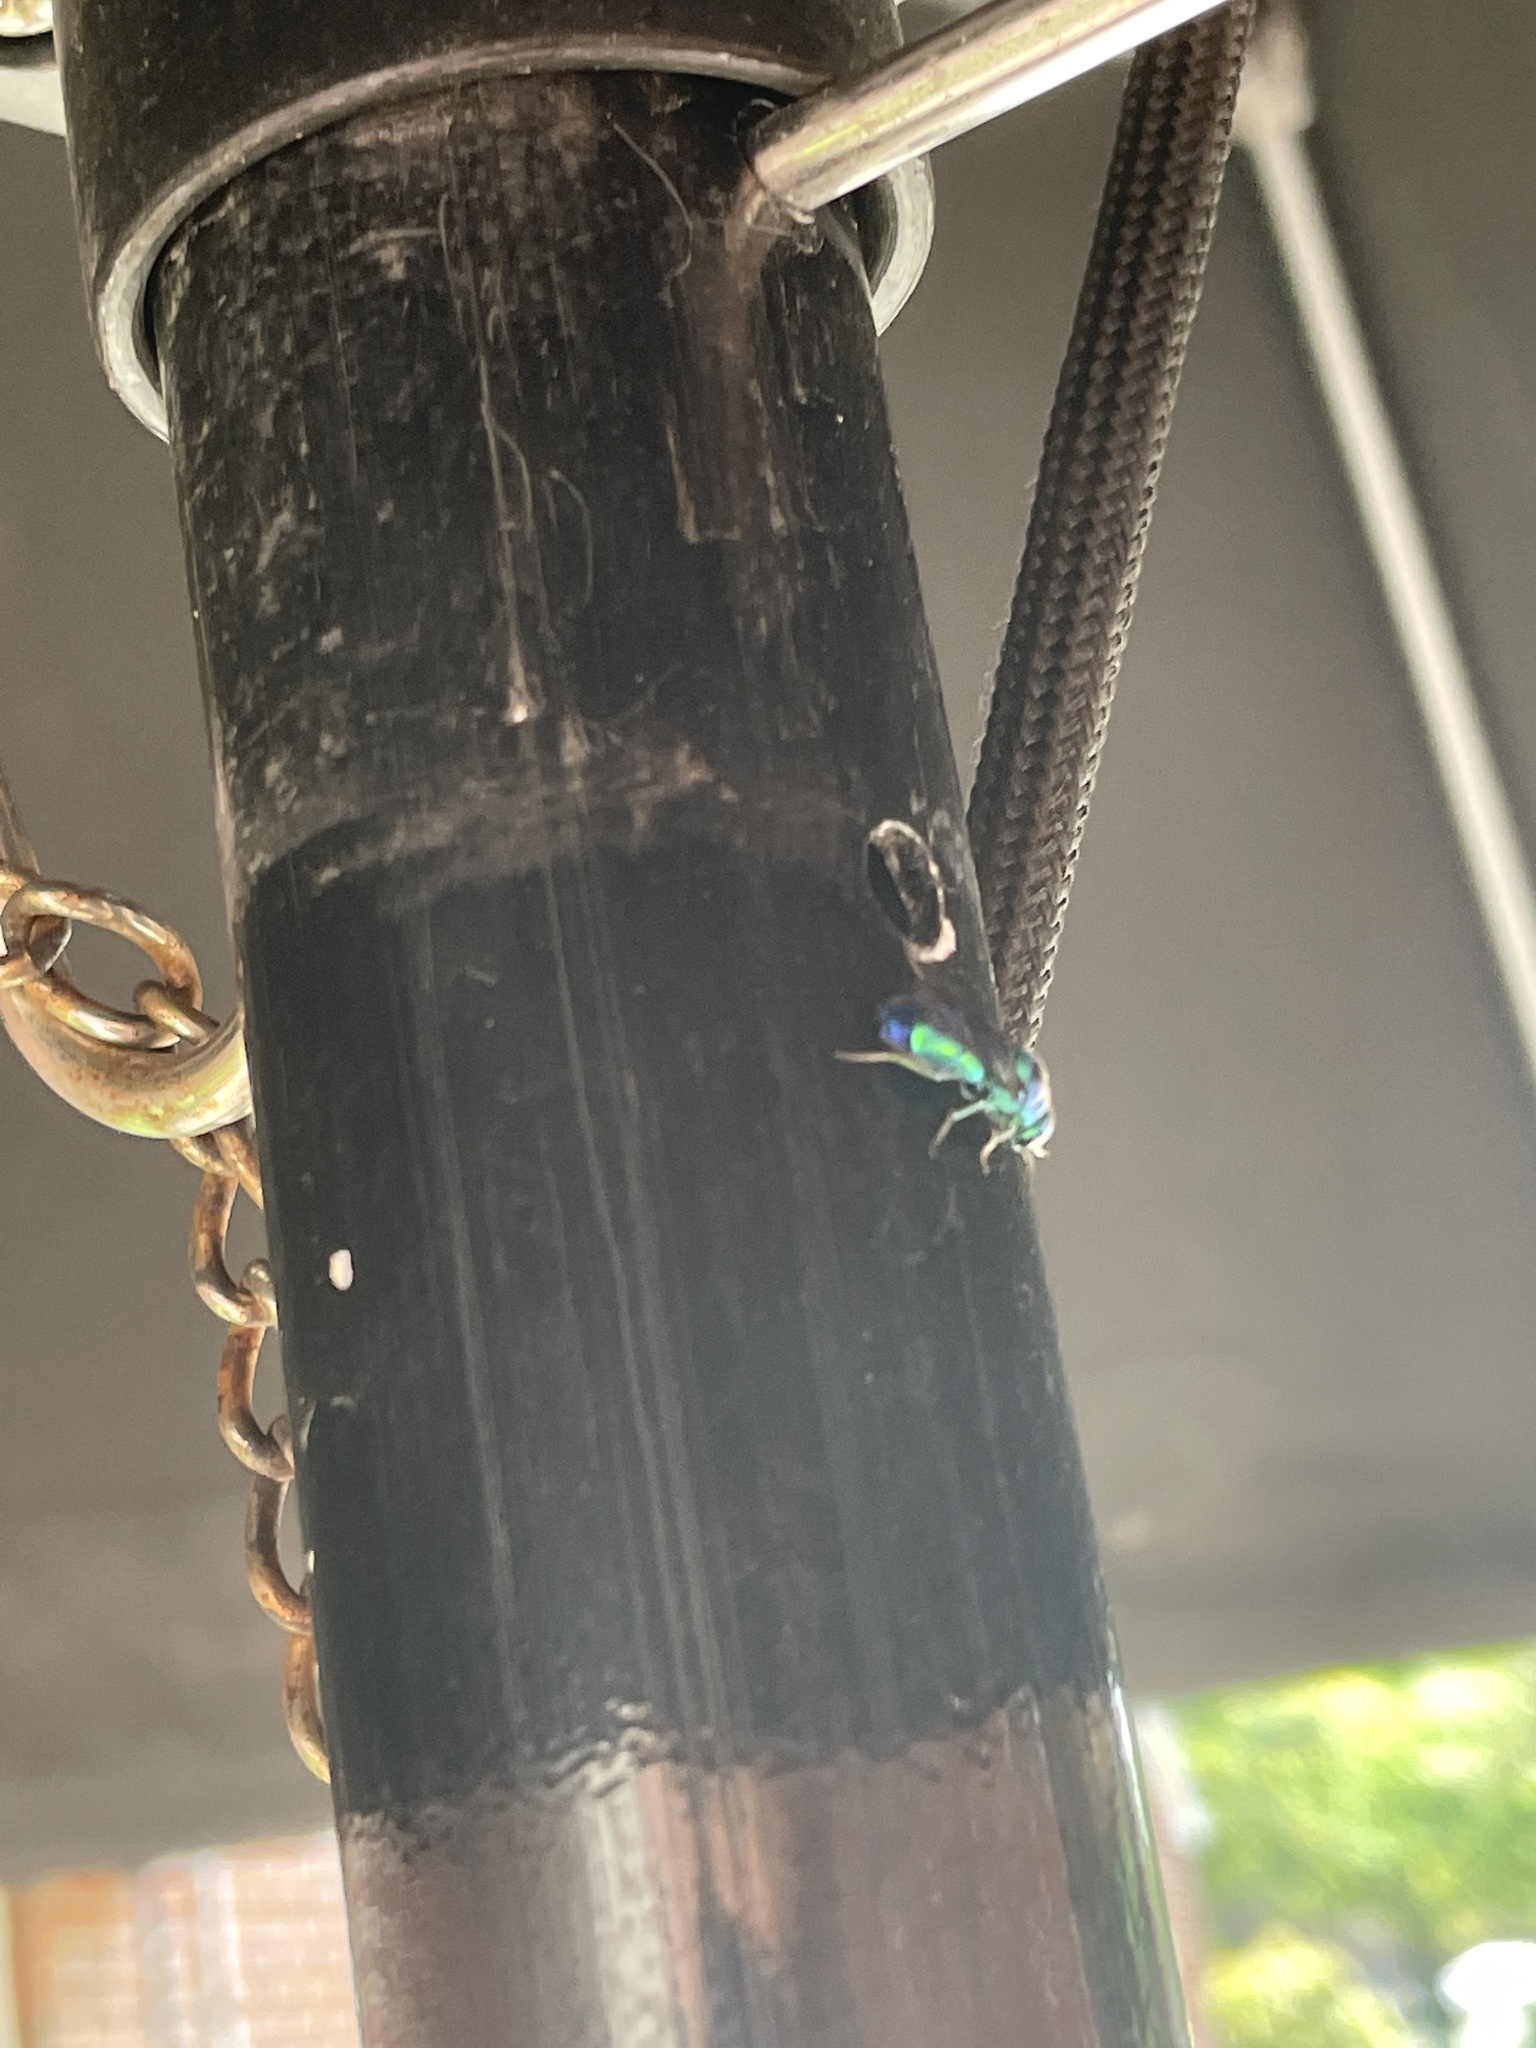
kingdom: Animalia
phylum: Arthropoda
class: Insecta
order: Hymenoptera
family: Chrysididae
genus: Chrysis
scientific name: Chrysis angolensis
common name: Cuckoo wasp
